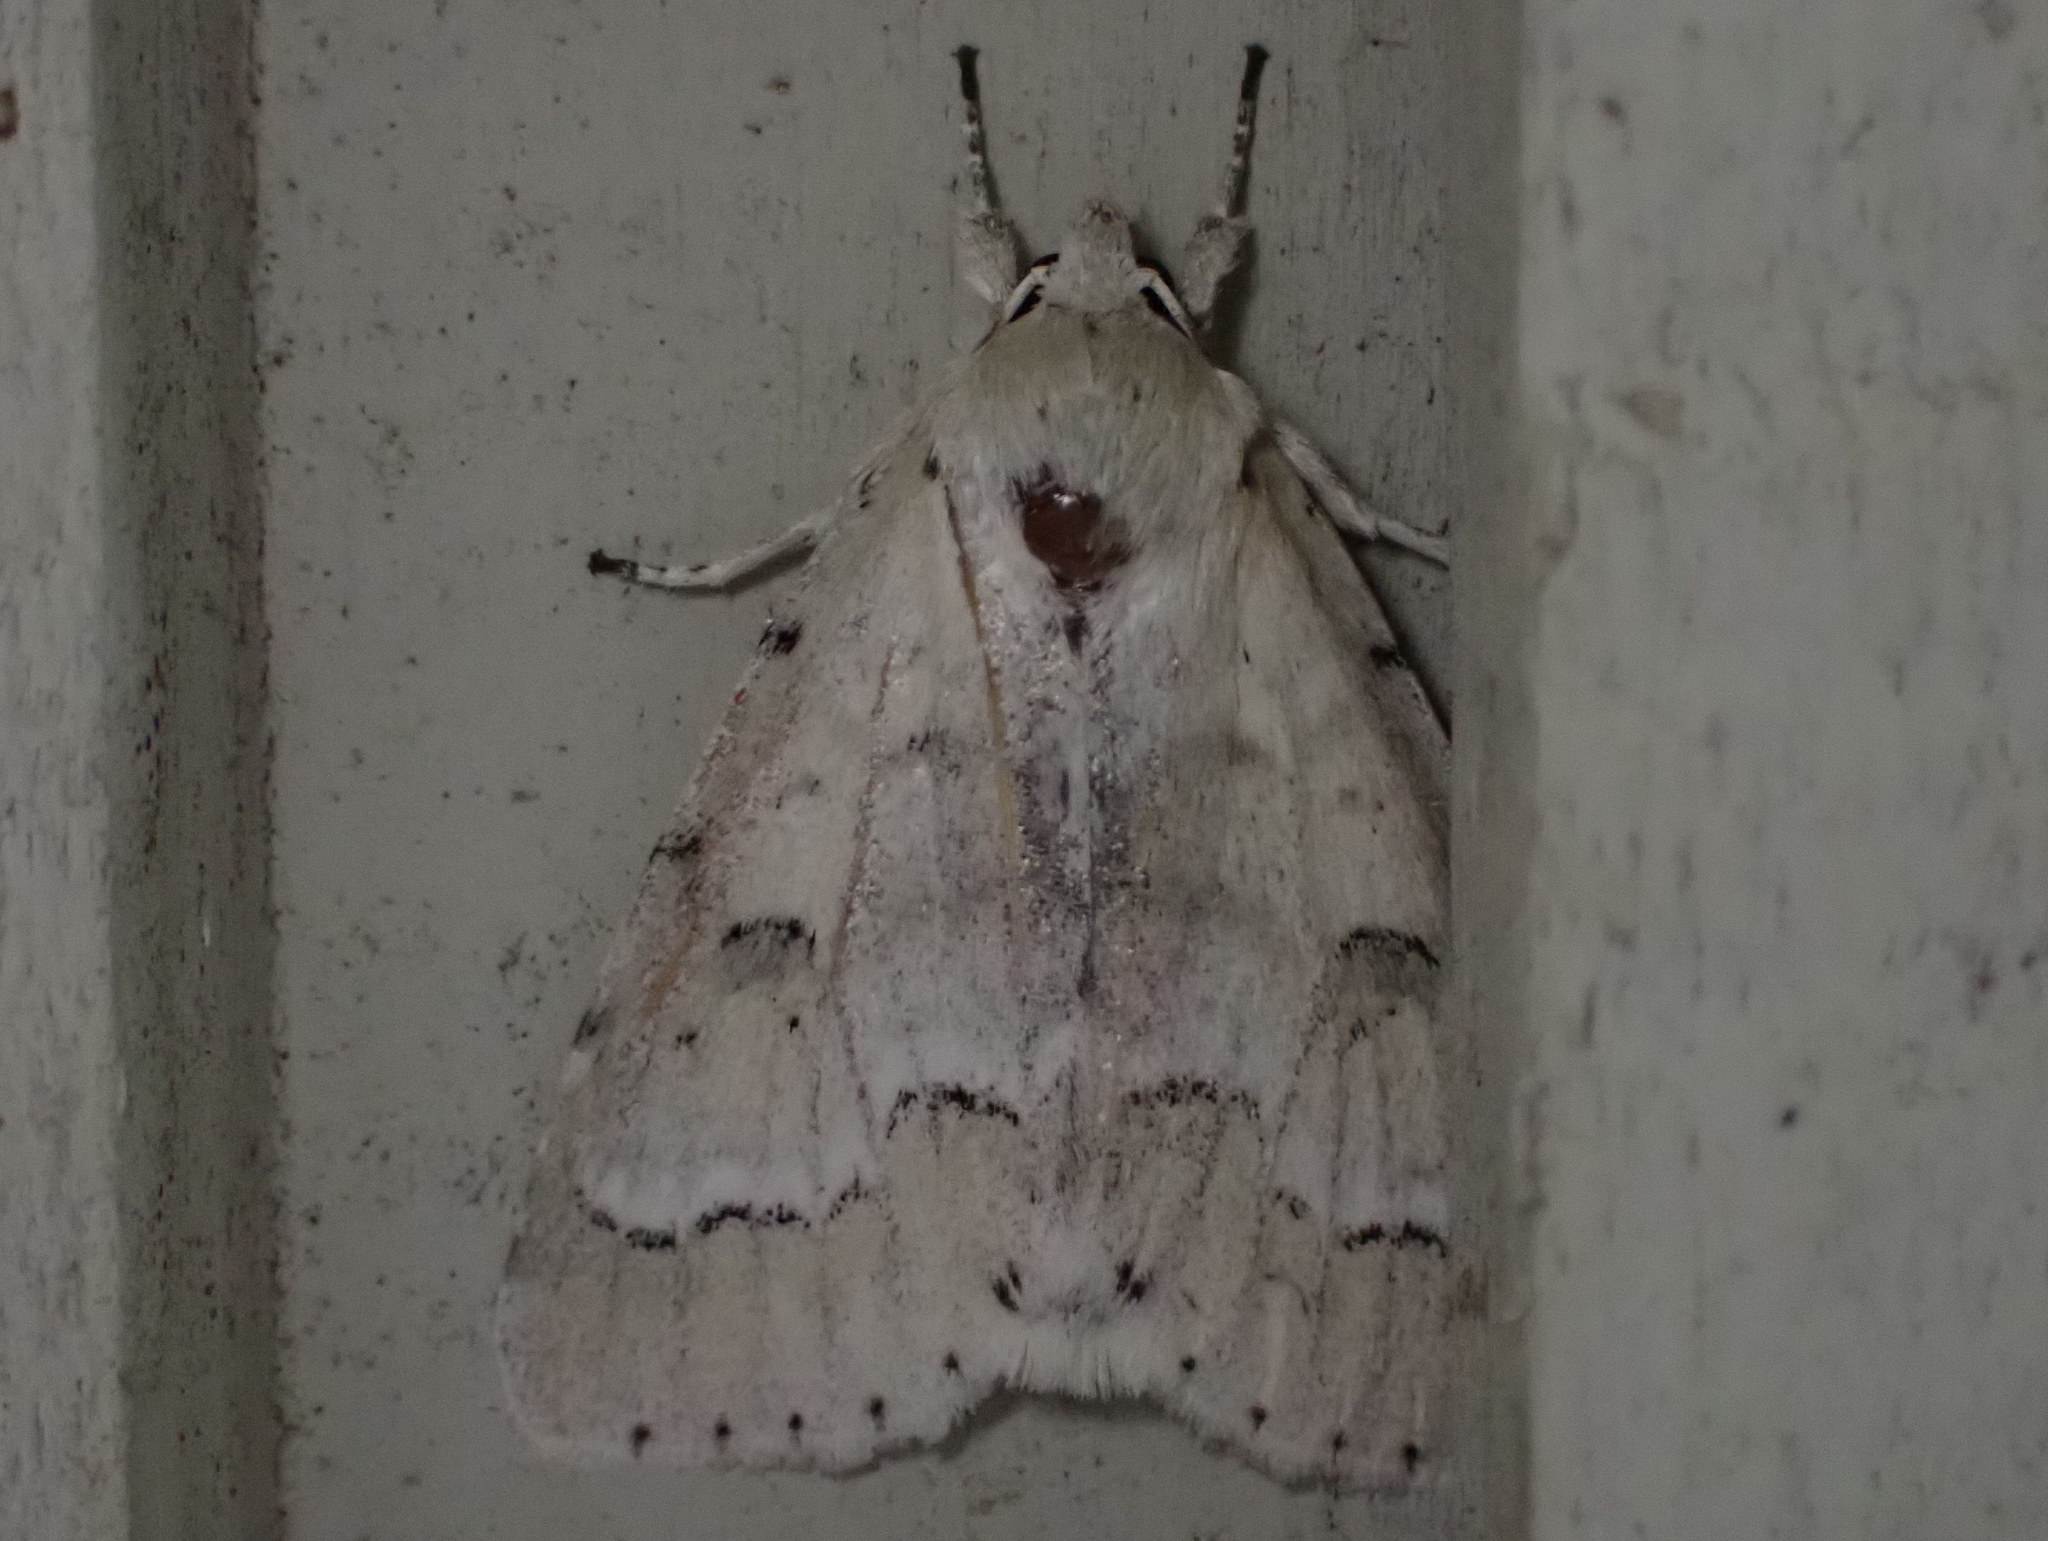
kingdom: Animalia
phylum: Arthropoda
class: Insecta
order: Lepidoptera
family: Noctuidae
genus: Acronicta
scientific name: Acronicta innotata
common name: Unmarked dagger
